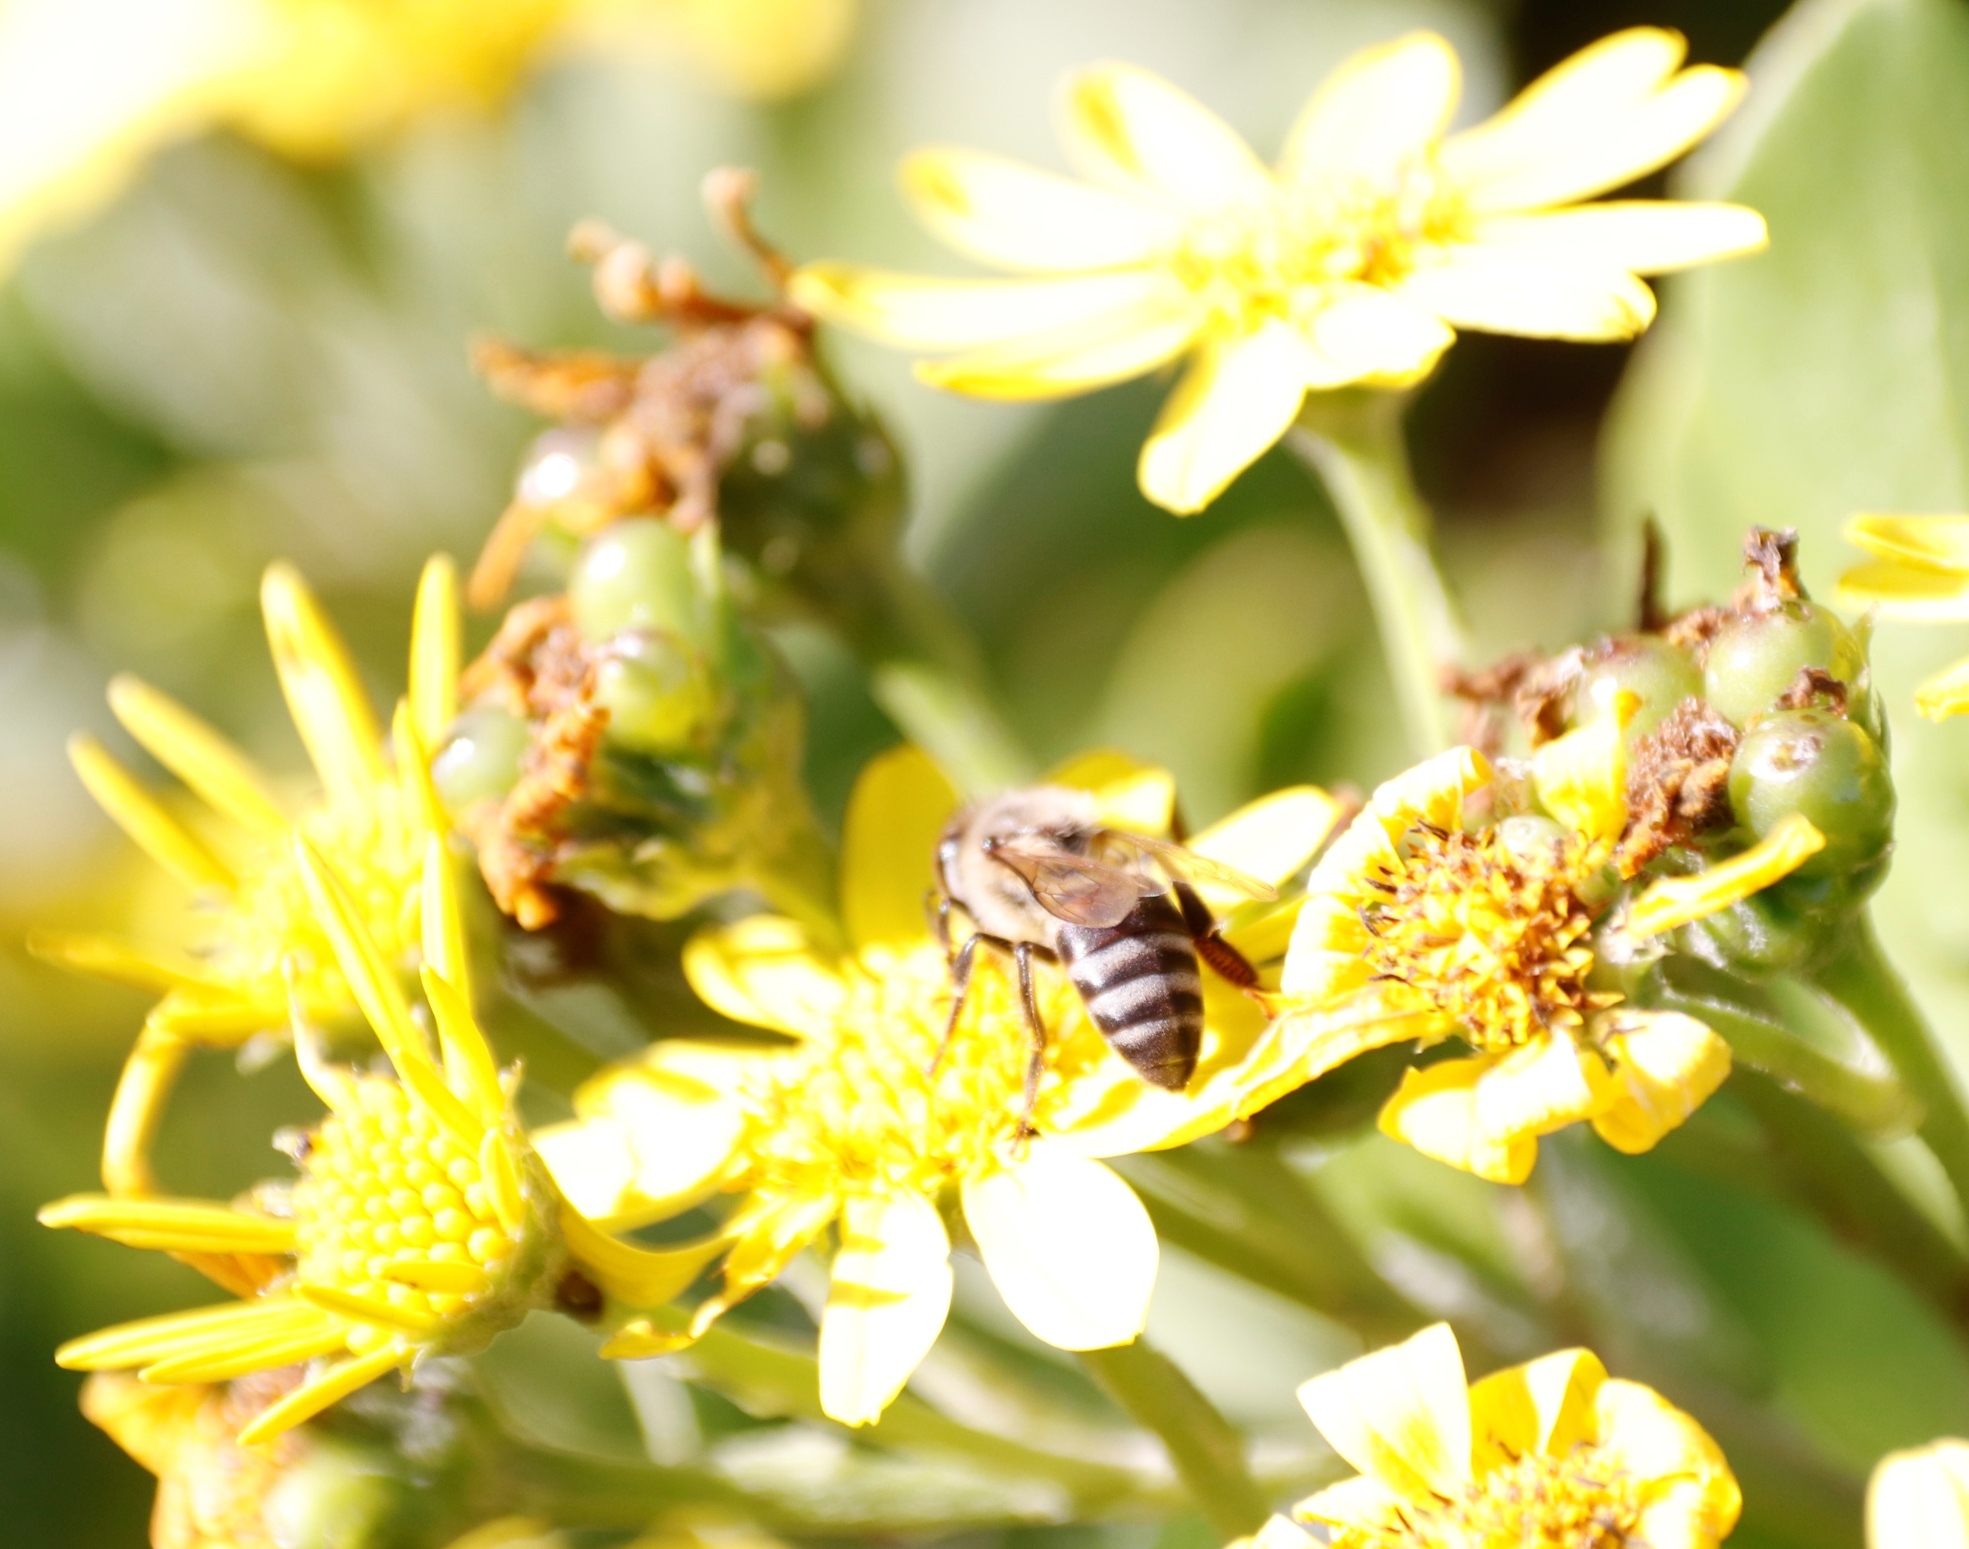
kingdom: Plantae
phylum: Tracheophyta
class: Magnoliopsida
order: Asterales
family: Asteraceae
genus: Osteospermum
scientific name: Osteospermum moniliferum
